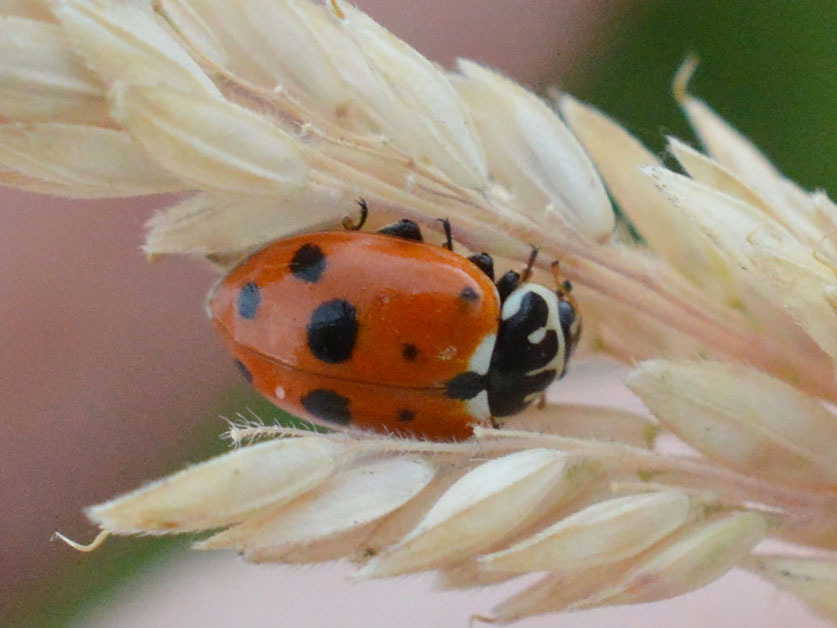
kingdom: Animalia
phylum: Arthropoda
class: Insecta
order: Coleoptera
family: Coccinellidae
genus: Hippodamia
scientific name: Hippodamia variegata
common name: Ladybird beetle
